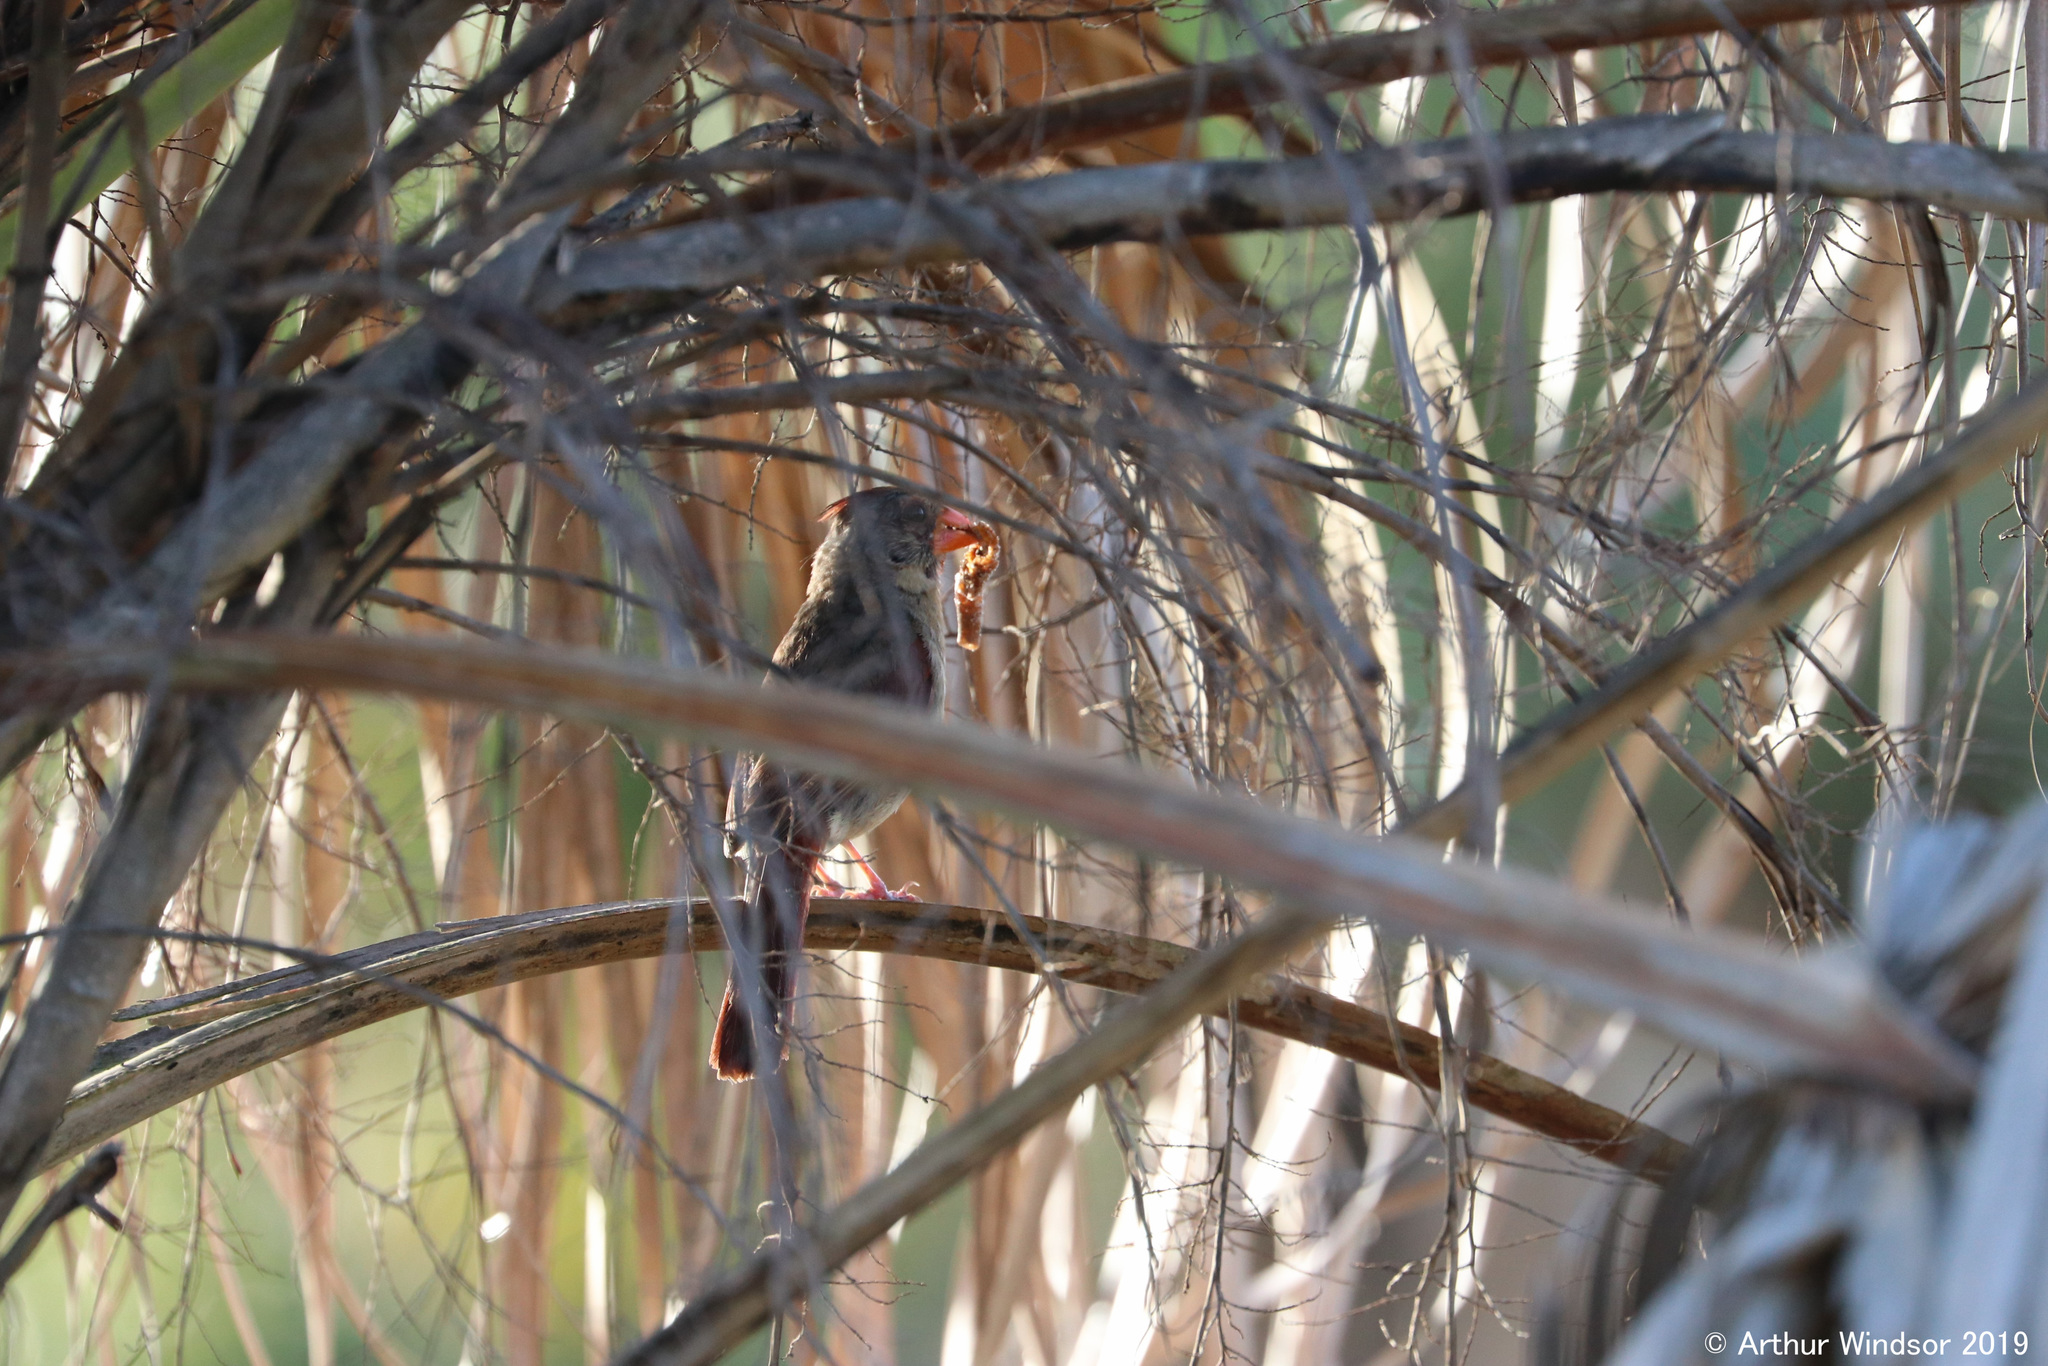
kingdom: Animalia
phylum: Chordata
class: Aves
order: Passeriformes
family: Cardinalidae
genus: Cardinalis
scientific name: Cardinalis cardinalis
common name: Northern cardinal
